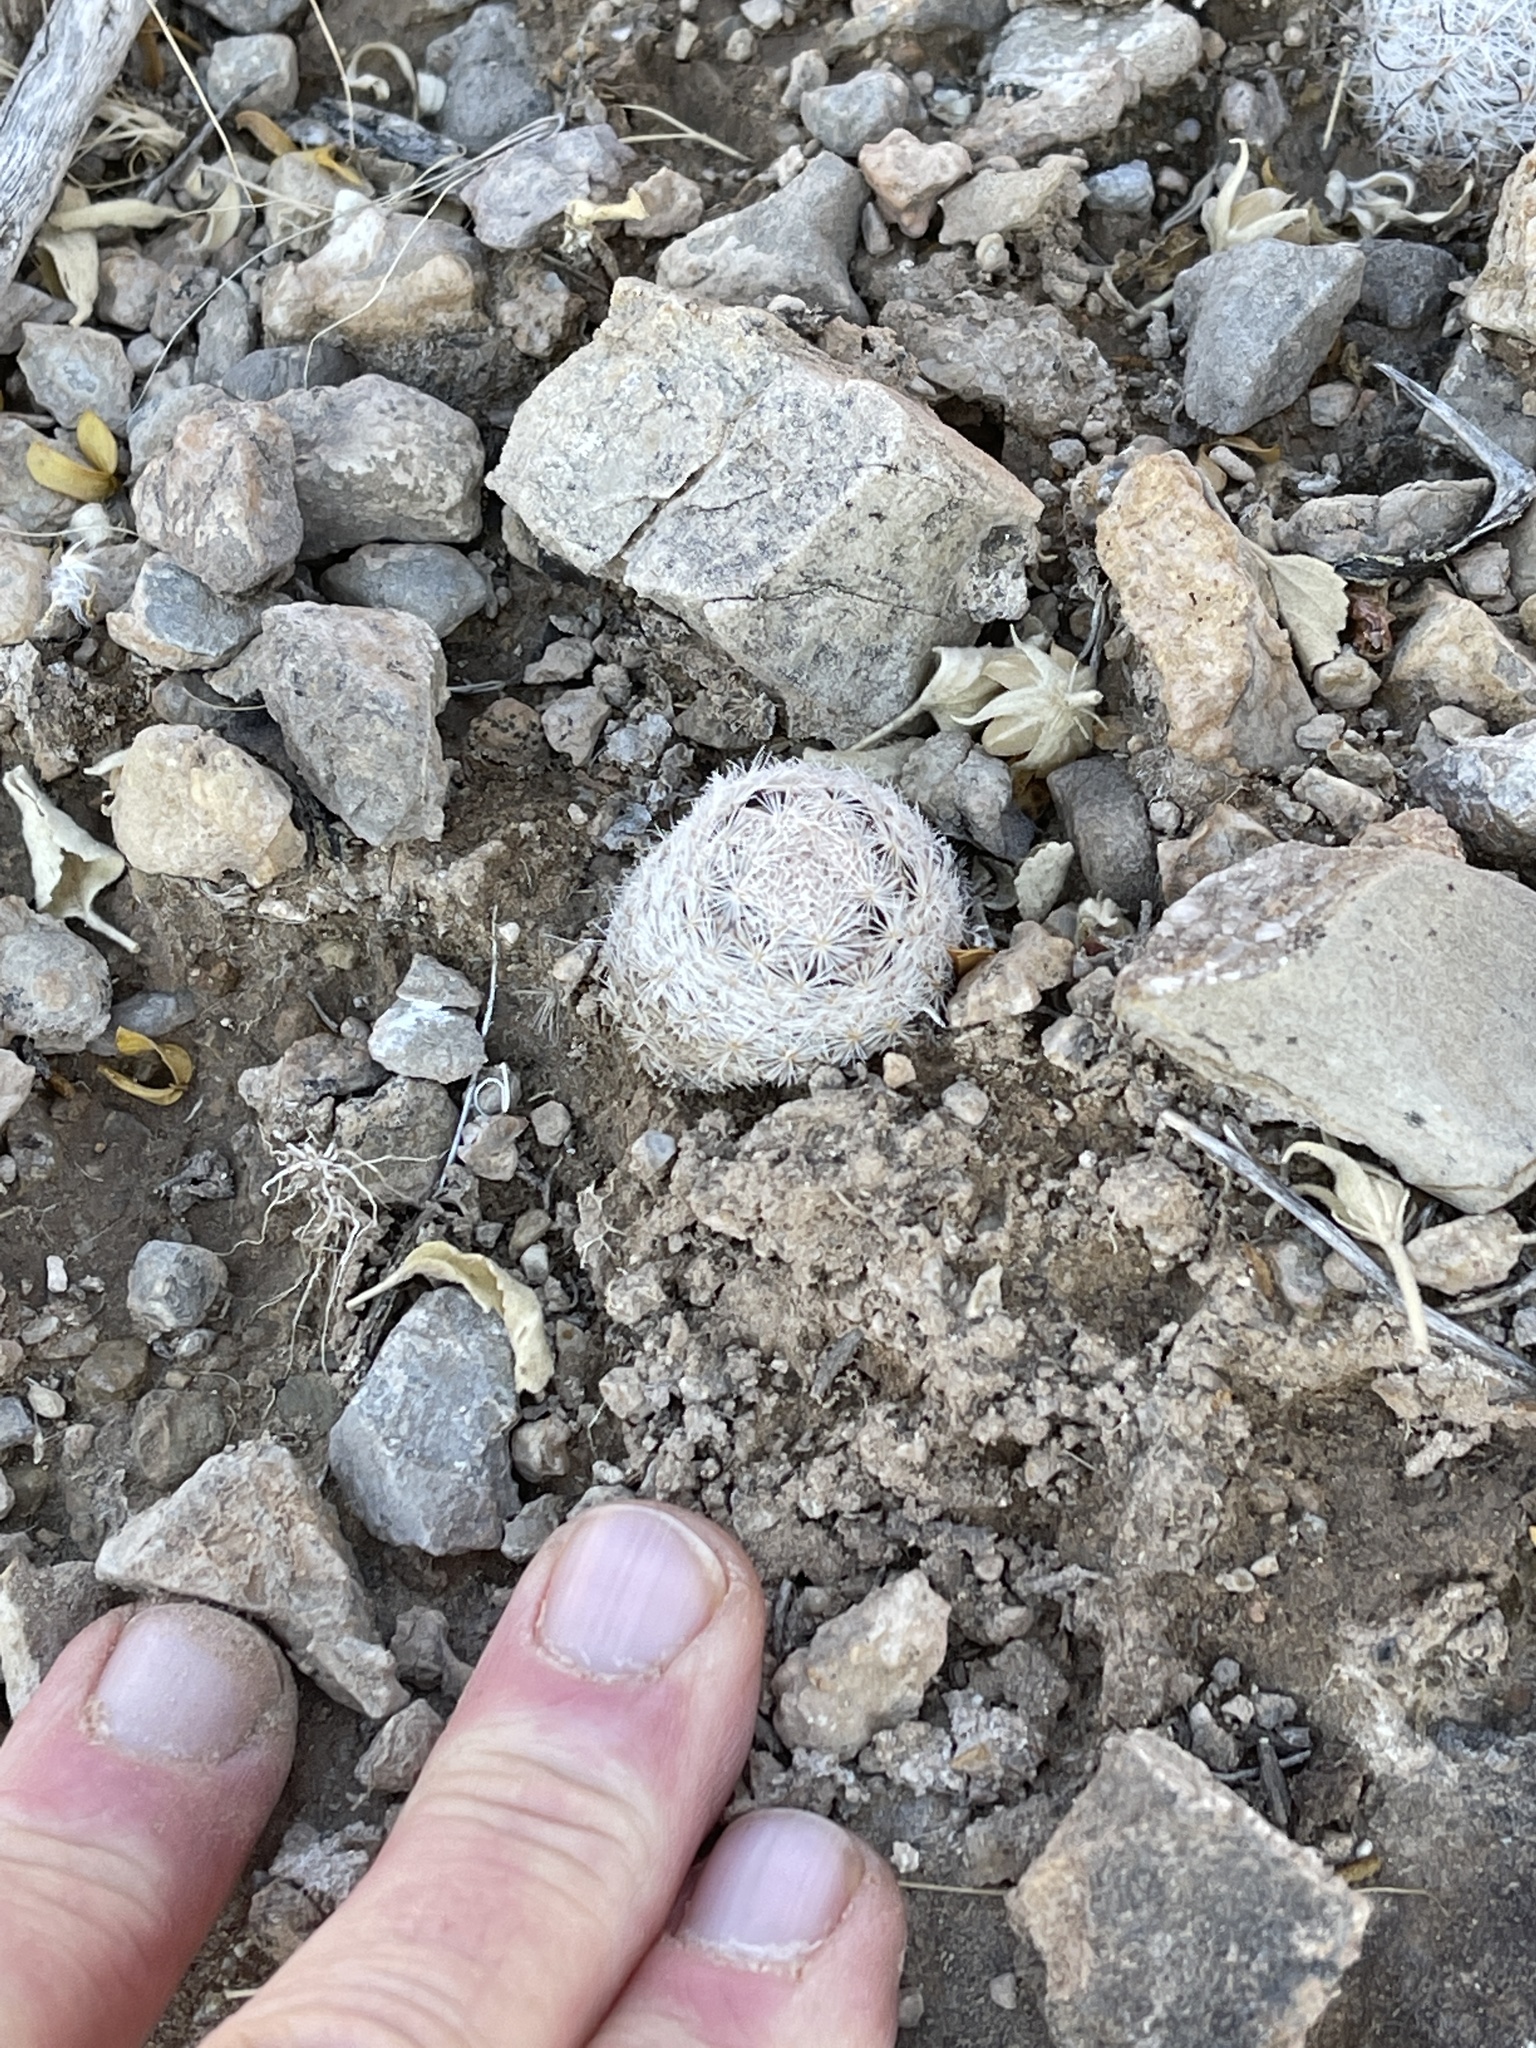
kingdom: Plantae
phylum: Tracheophyta
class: Magnoliopsida
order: Caryophyllales
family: Cactaceae
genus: Mammillaria
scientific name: Mammillaria lasiacantha
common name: Lace-spine nipple cactus
